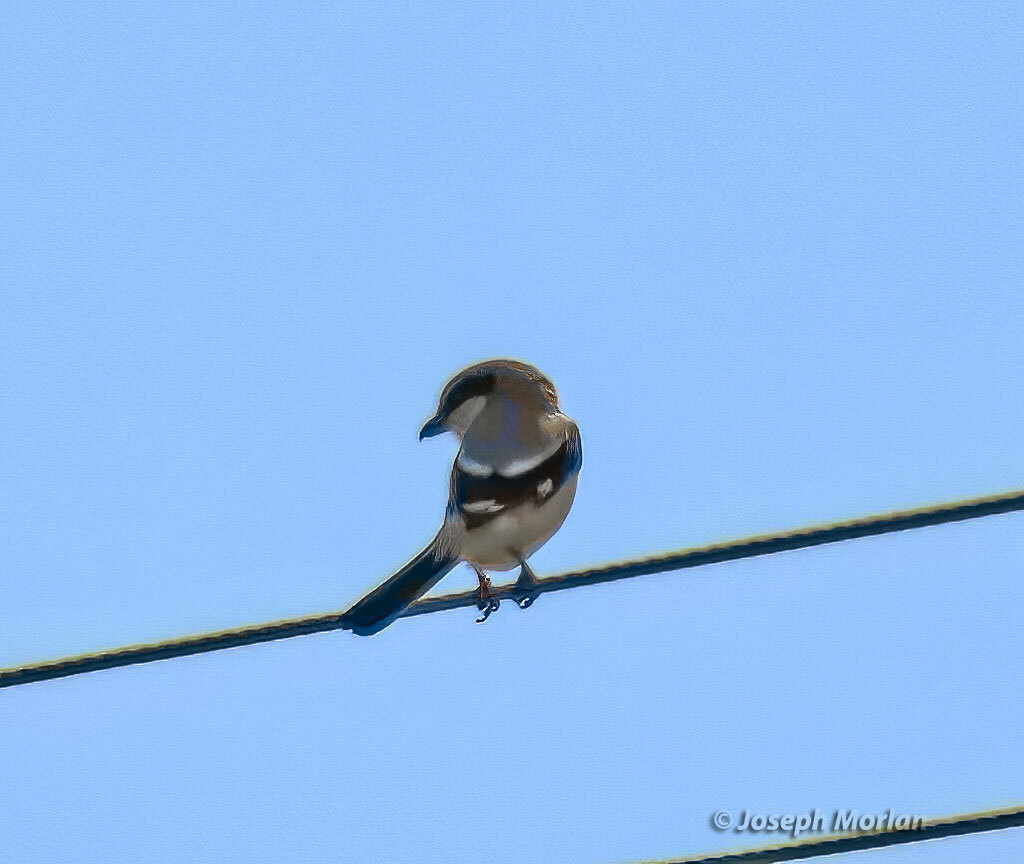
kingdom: Animalia
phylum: Chordata
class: Aves
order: Passeriformes
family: Laniidae
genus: Lanius
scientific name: Lanius ludovicianus
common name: Loggerhead shrike
